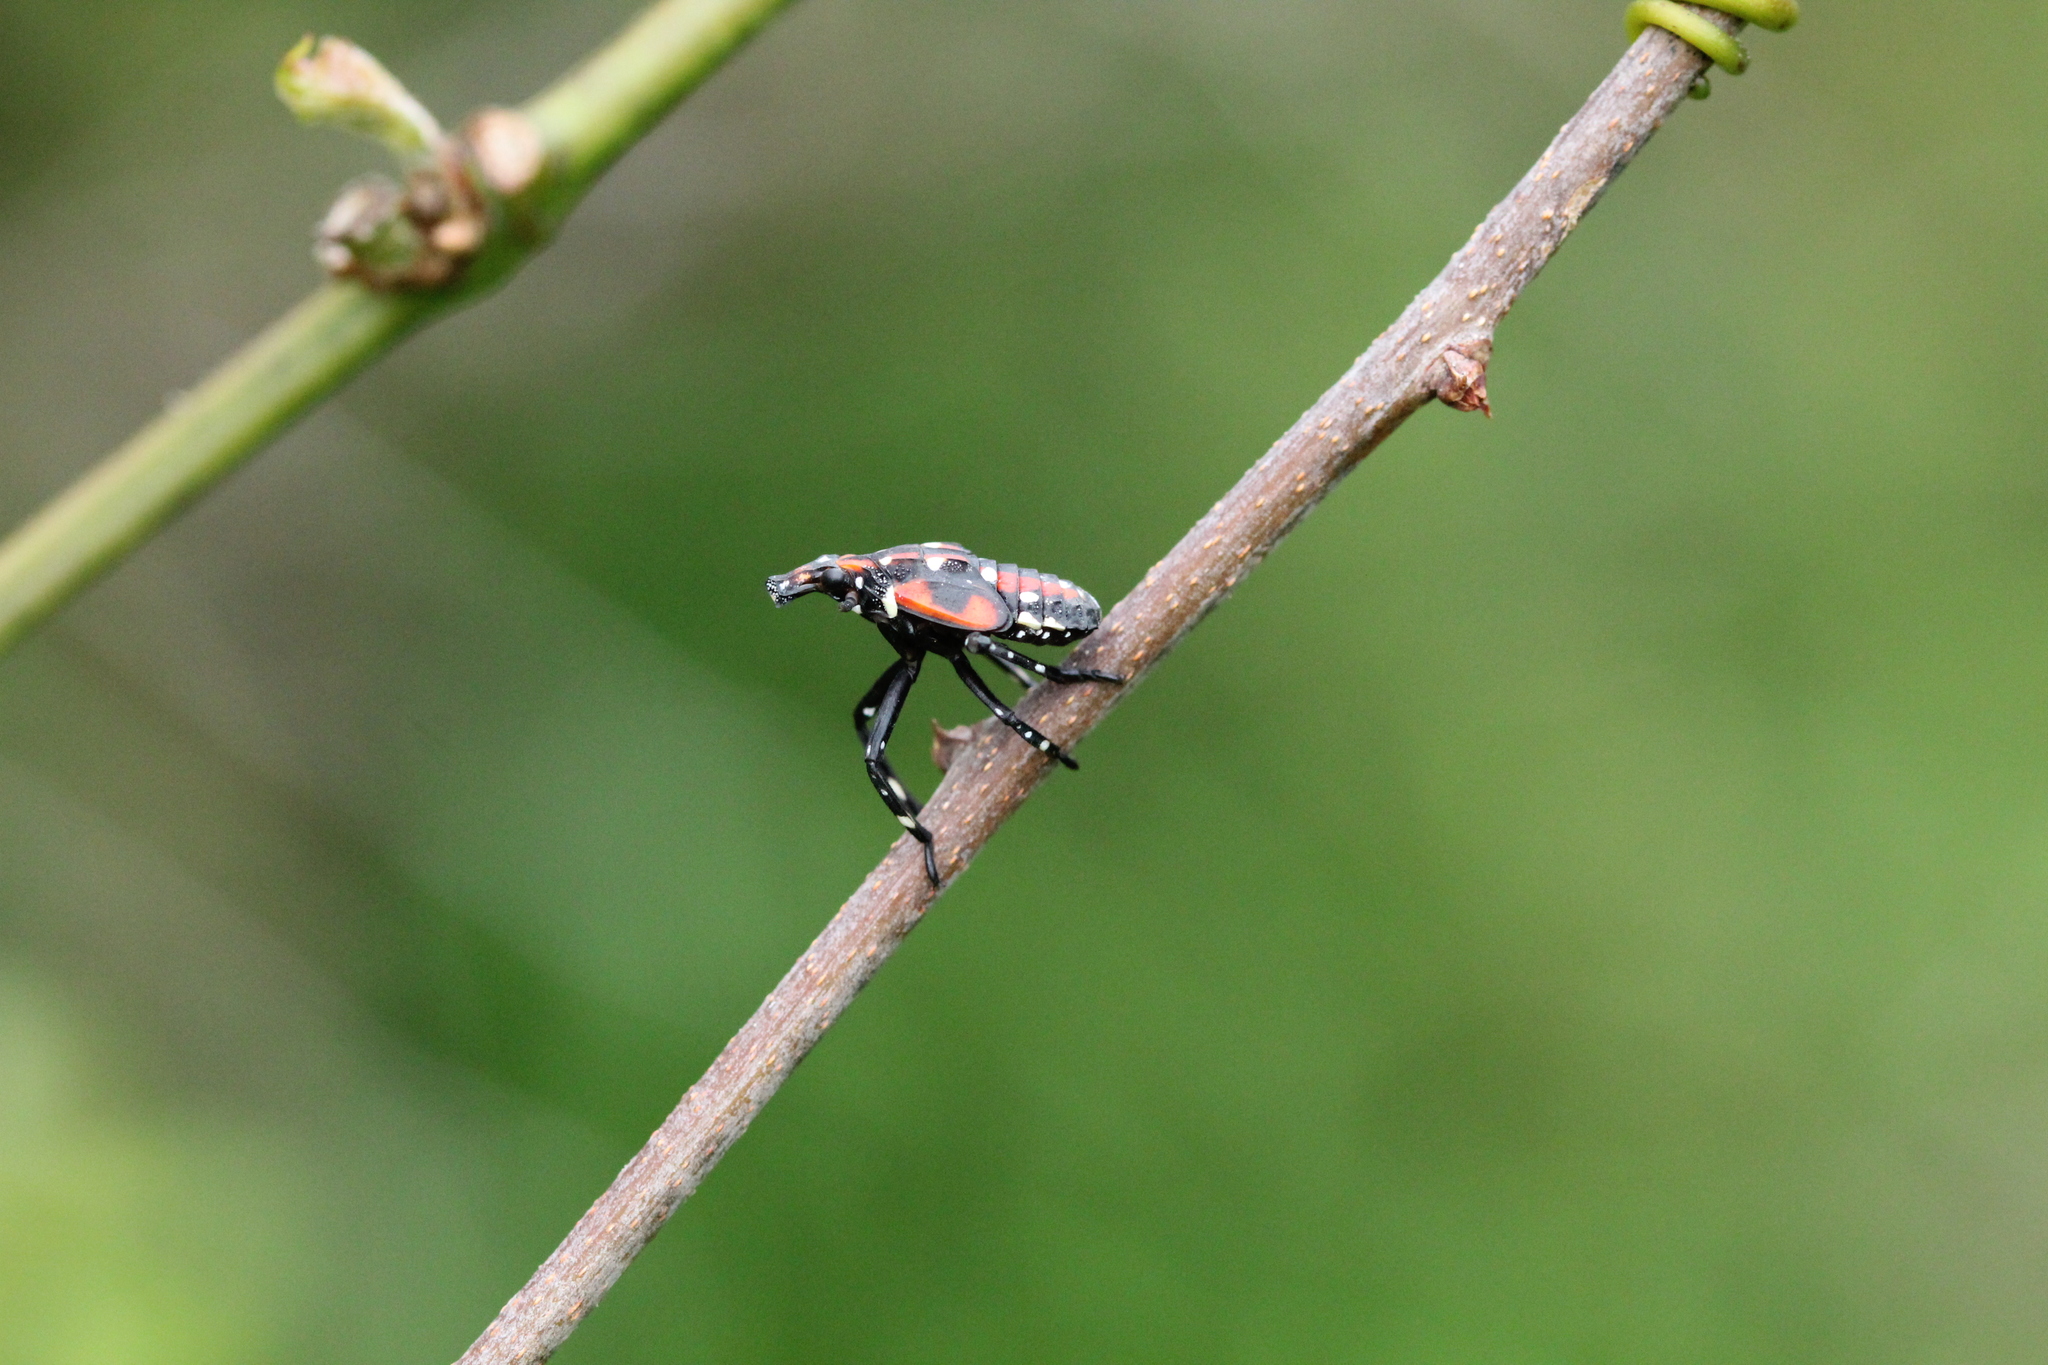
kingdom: Animalia
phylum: Arthropoda
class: Insecta
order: Hemiptera
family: Fulgoridae
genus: Lycorma
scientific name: Lycorma delicatula
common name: Spotted lanternfly
